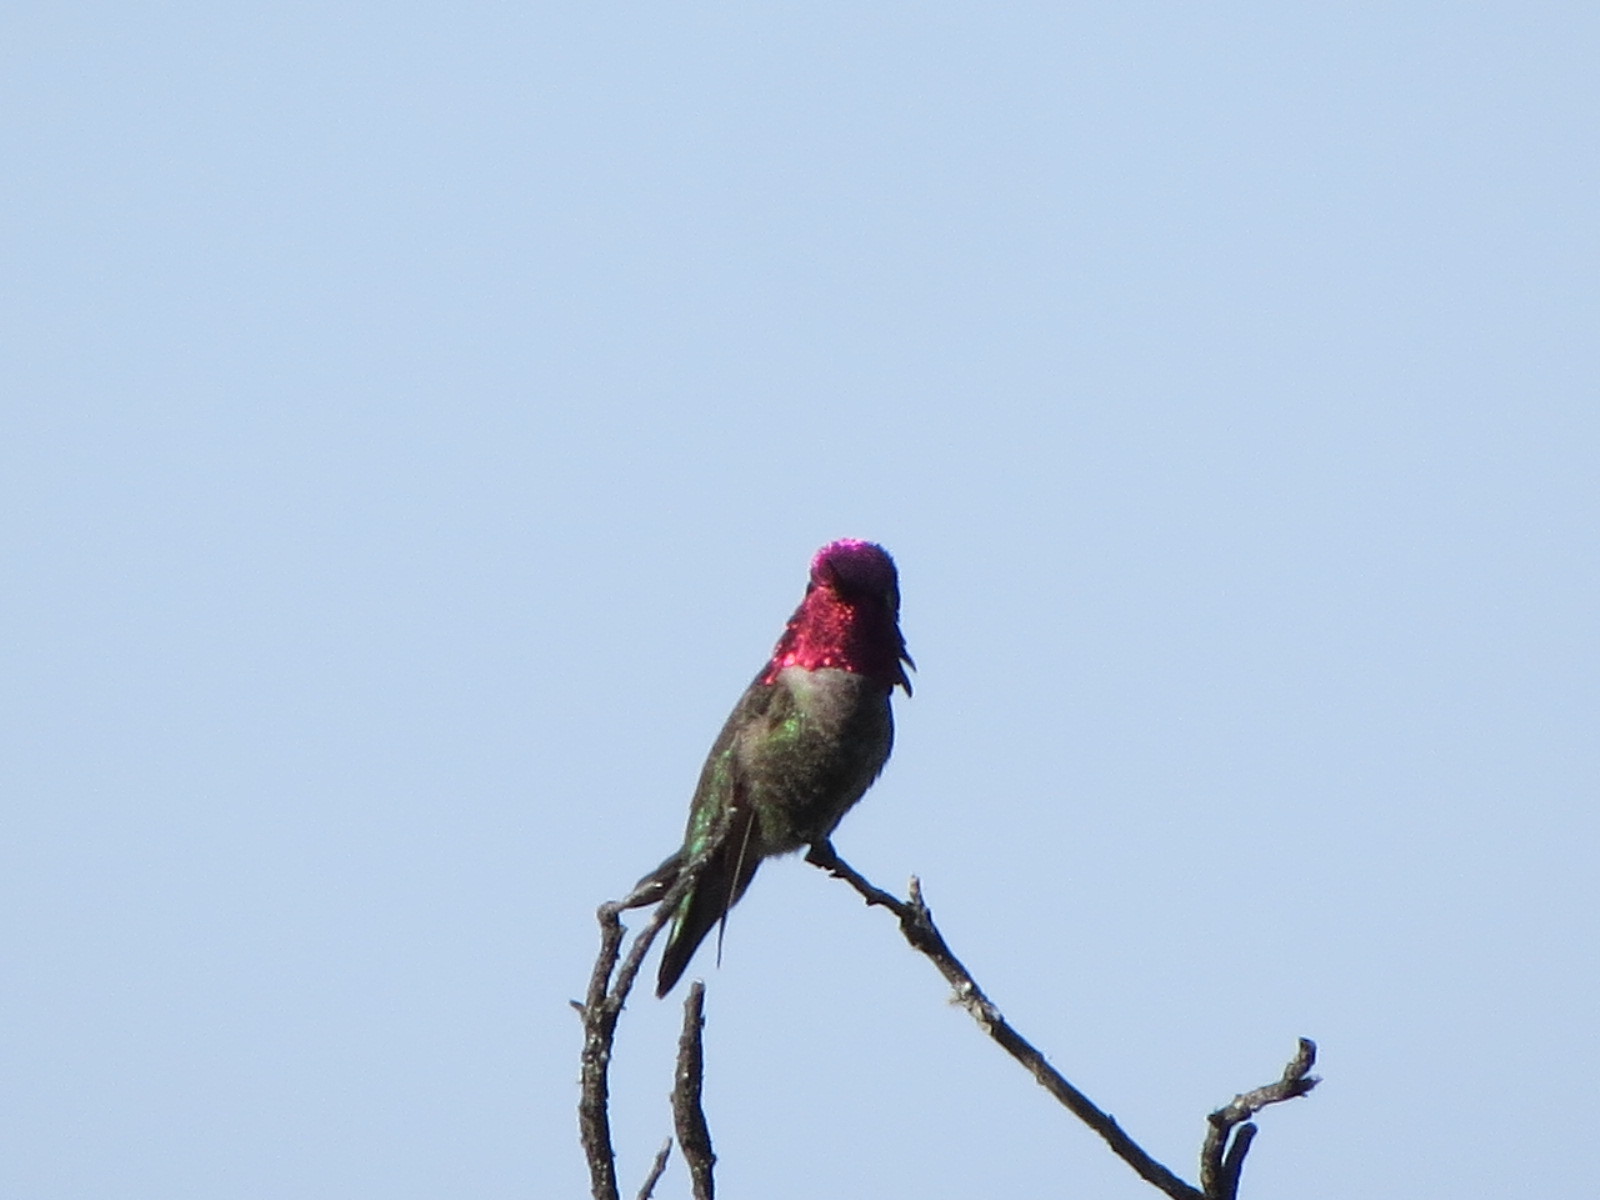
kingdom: Animalia
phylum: Chordata
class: Aves
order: Apodiformes
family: Trochilidae
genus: Calypte
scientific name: Calypte anna
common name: Anna's hummingbird
